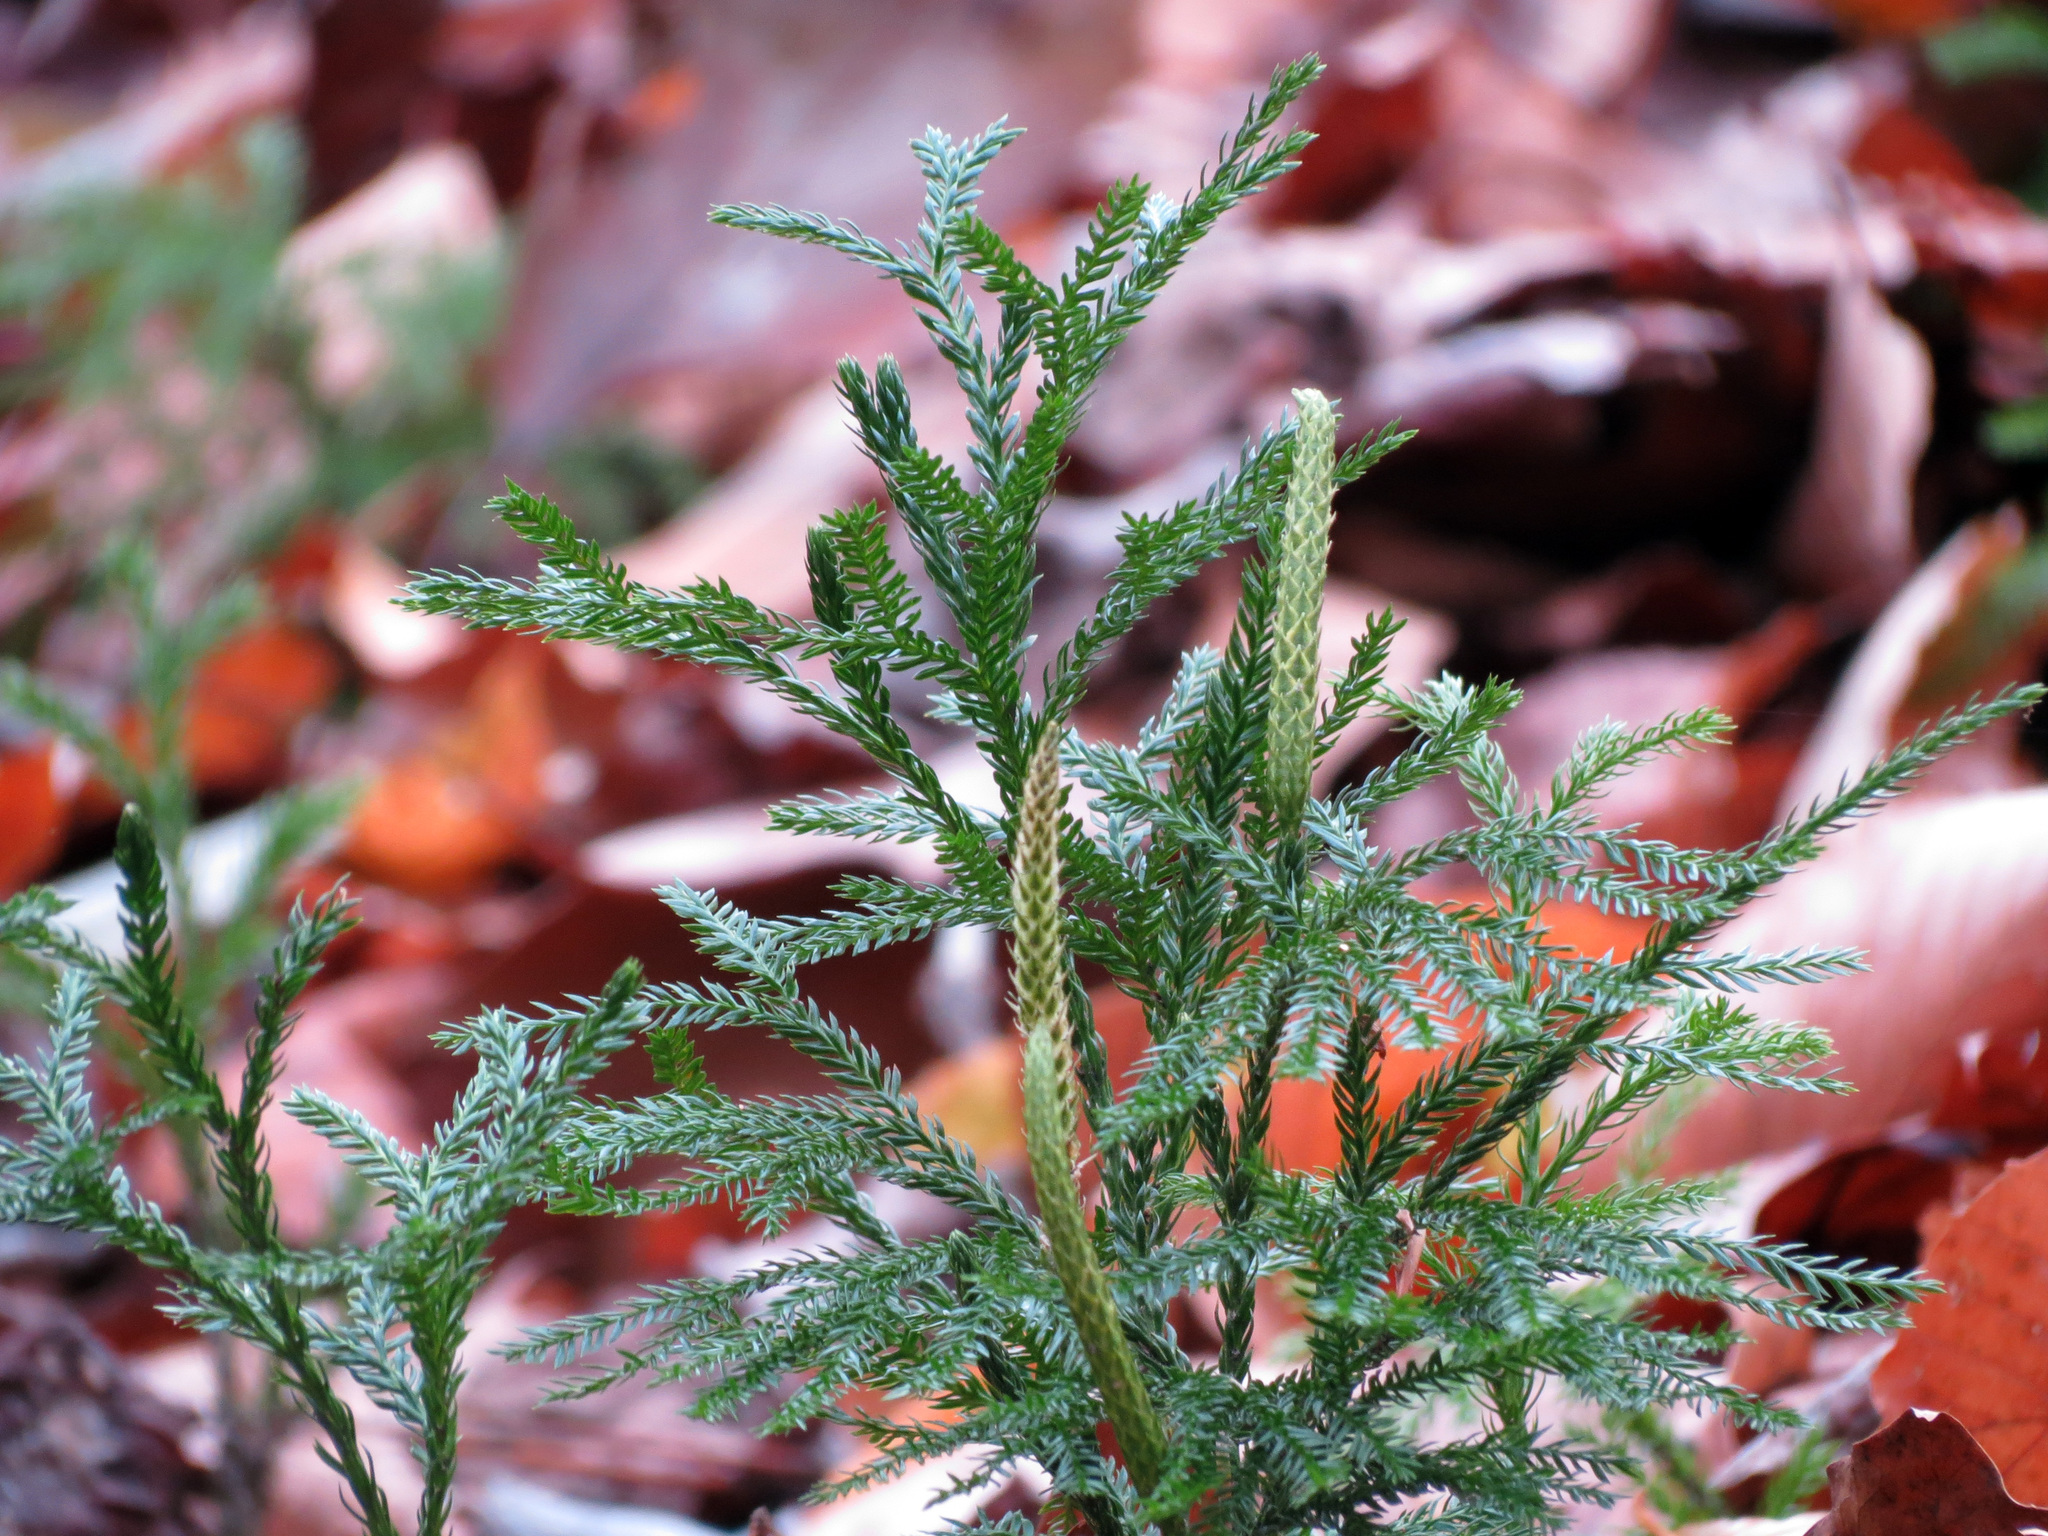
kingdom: Plantae
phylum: Tracheophyta
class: Lycopodiopsida
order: Lycopodiales
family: Lycopodiaceae
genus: Dendrolycopodium
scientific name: Dendrolycopodium obscurum
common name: Common ground-pine
